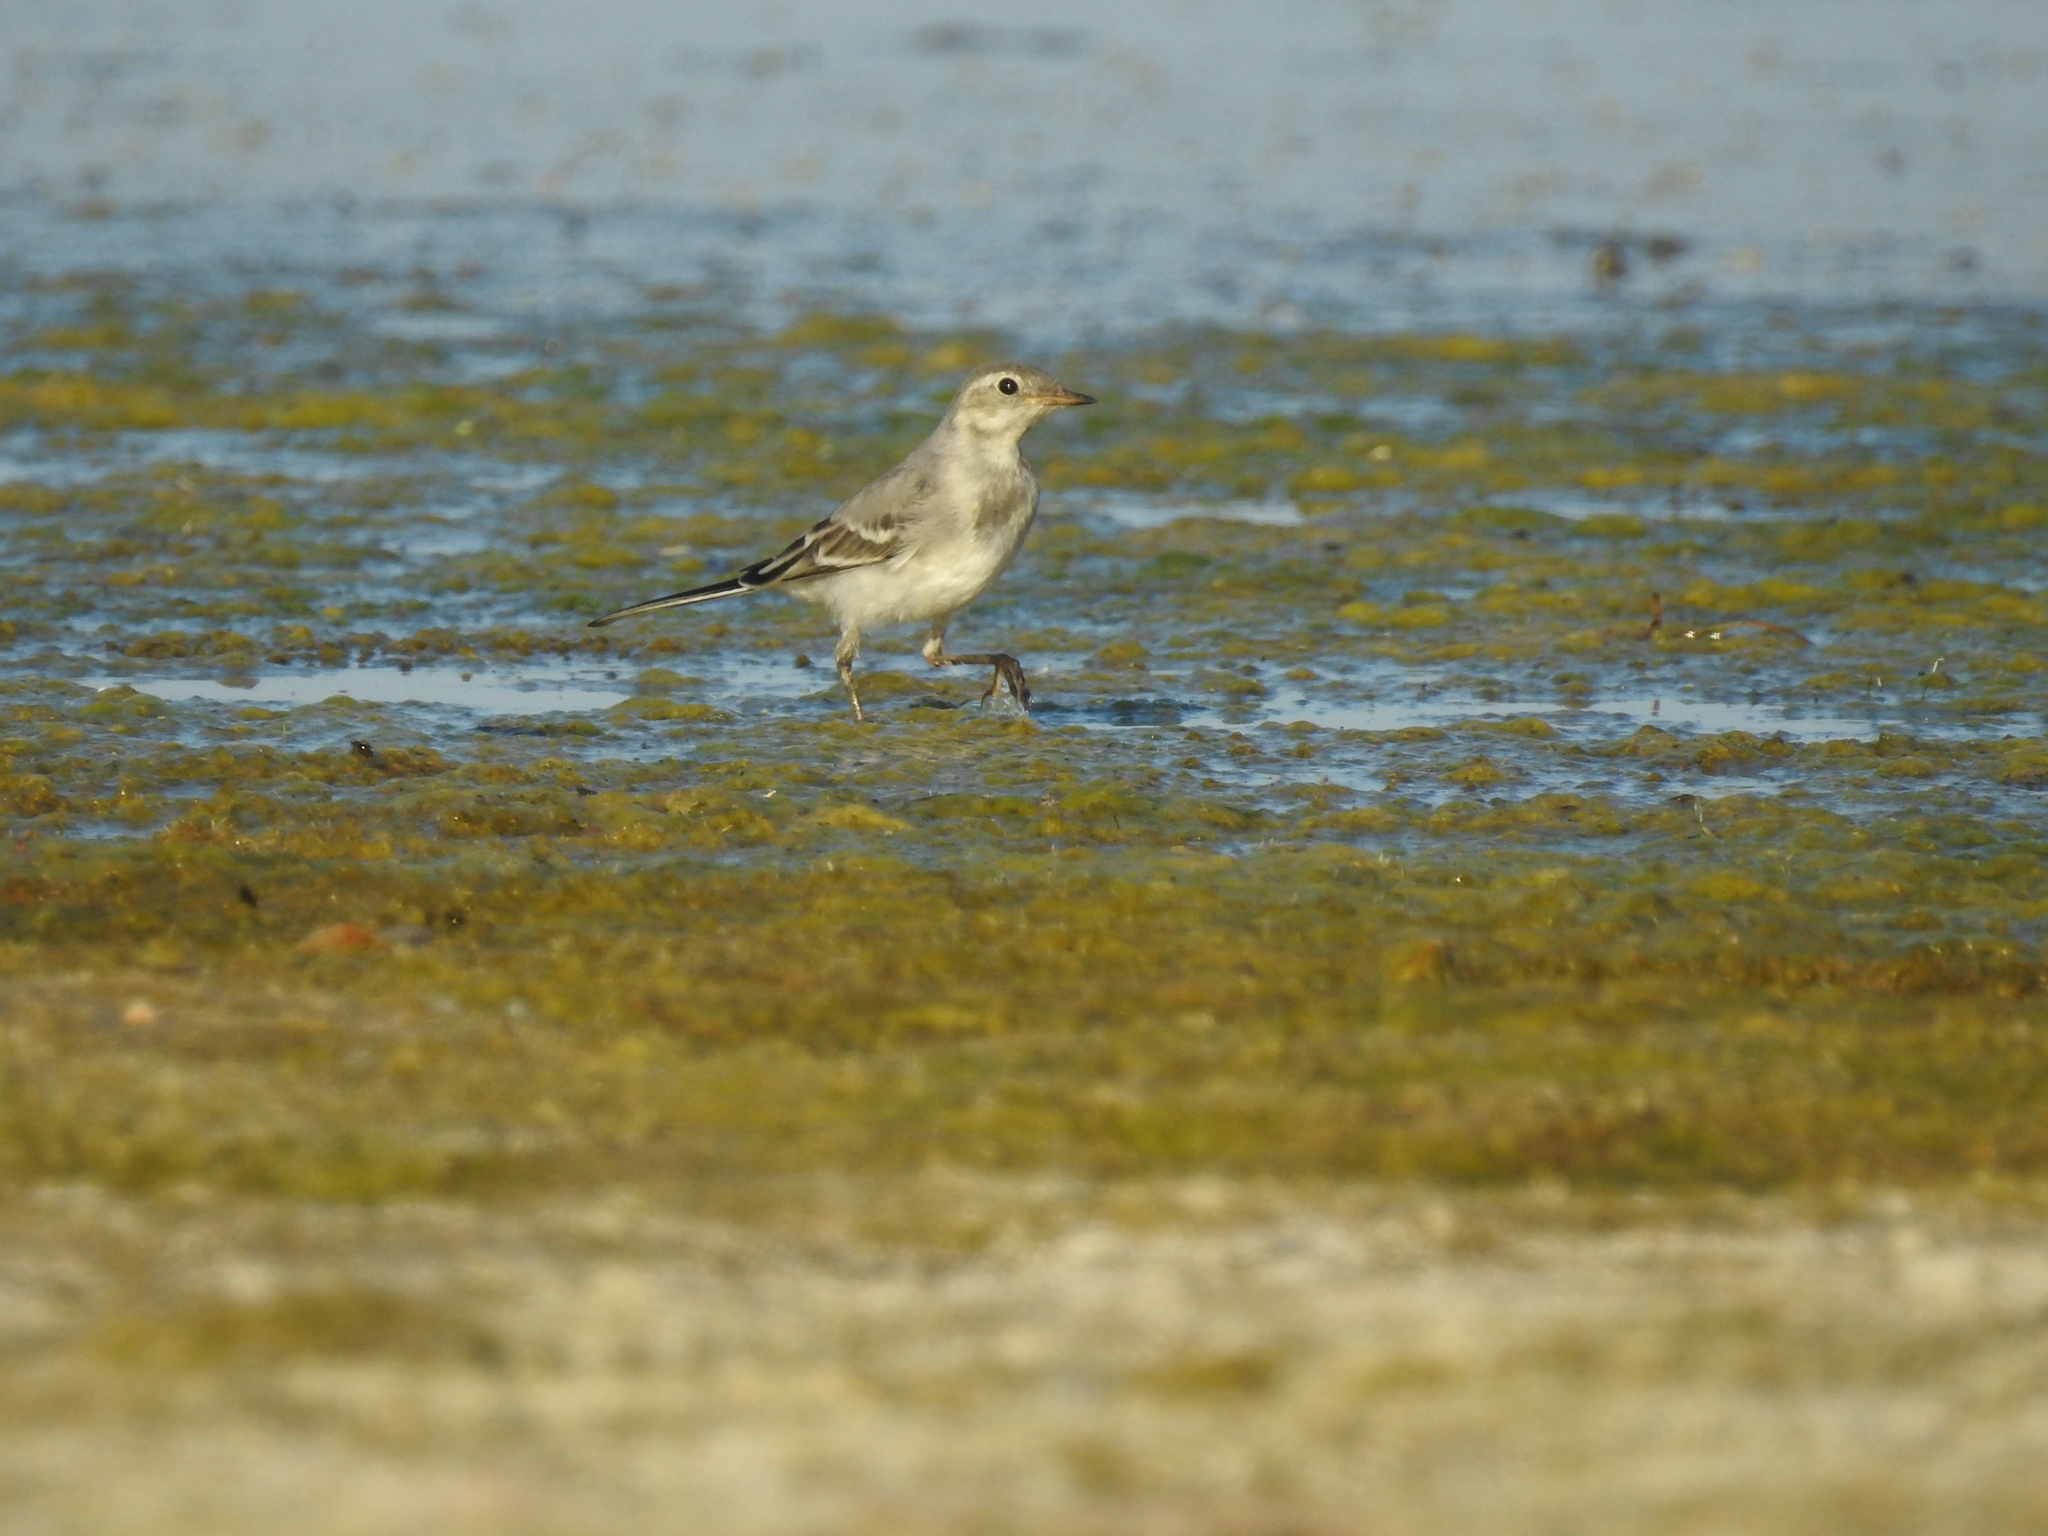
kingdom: Animalia
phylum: Chordata
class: Aves
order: Passeriformes
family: Motacillidae
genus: Motacilla
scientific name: Motacilla alba
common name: White wagtail
